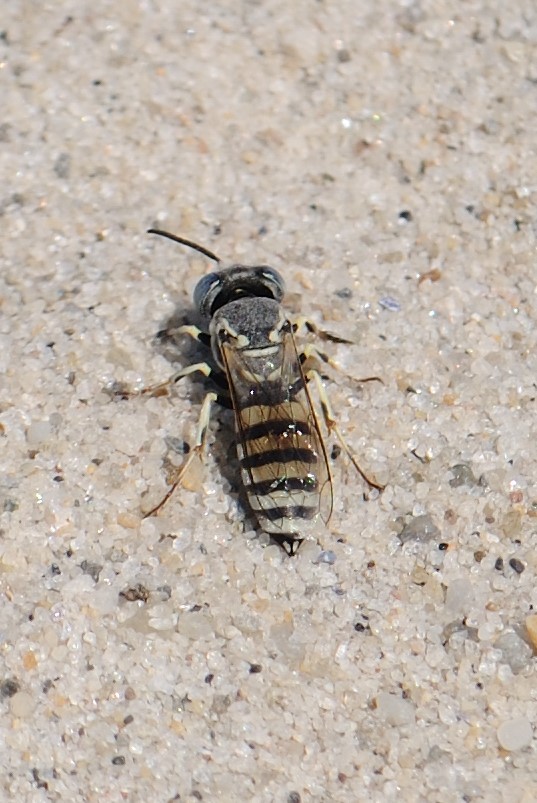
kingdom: Animalia
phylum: Arthropoda
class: Insecta
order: Hymenoptera
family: Crabronidae
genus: Microbembex
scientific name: Microbembex monodonta
